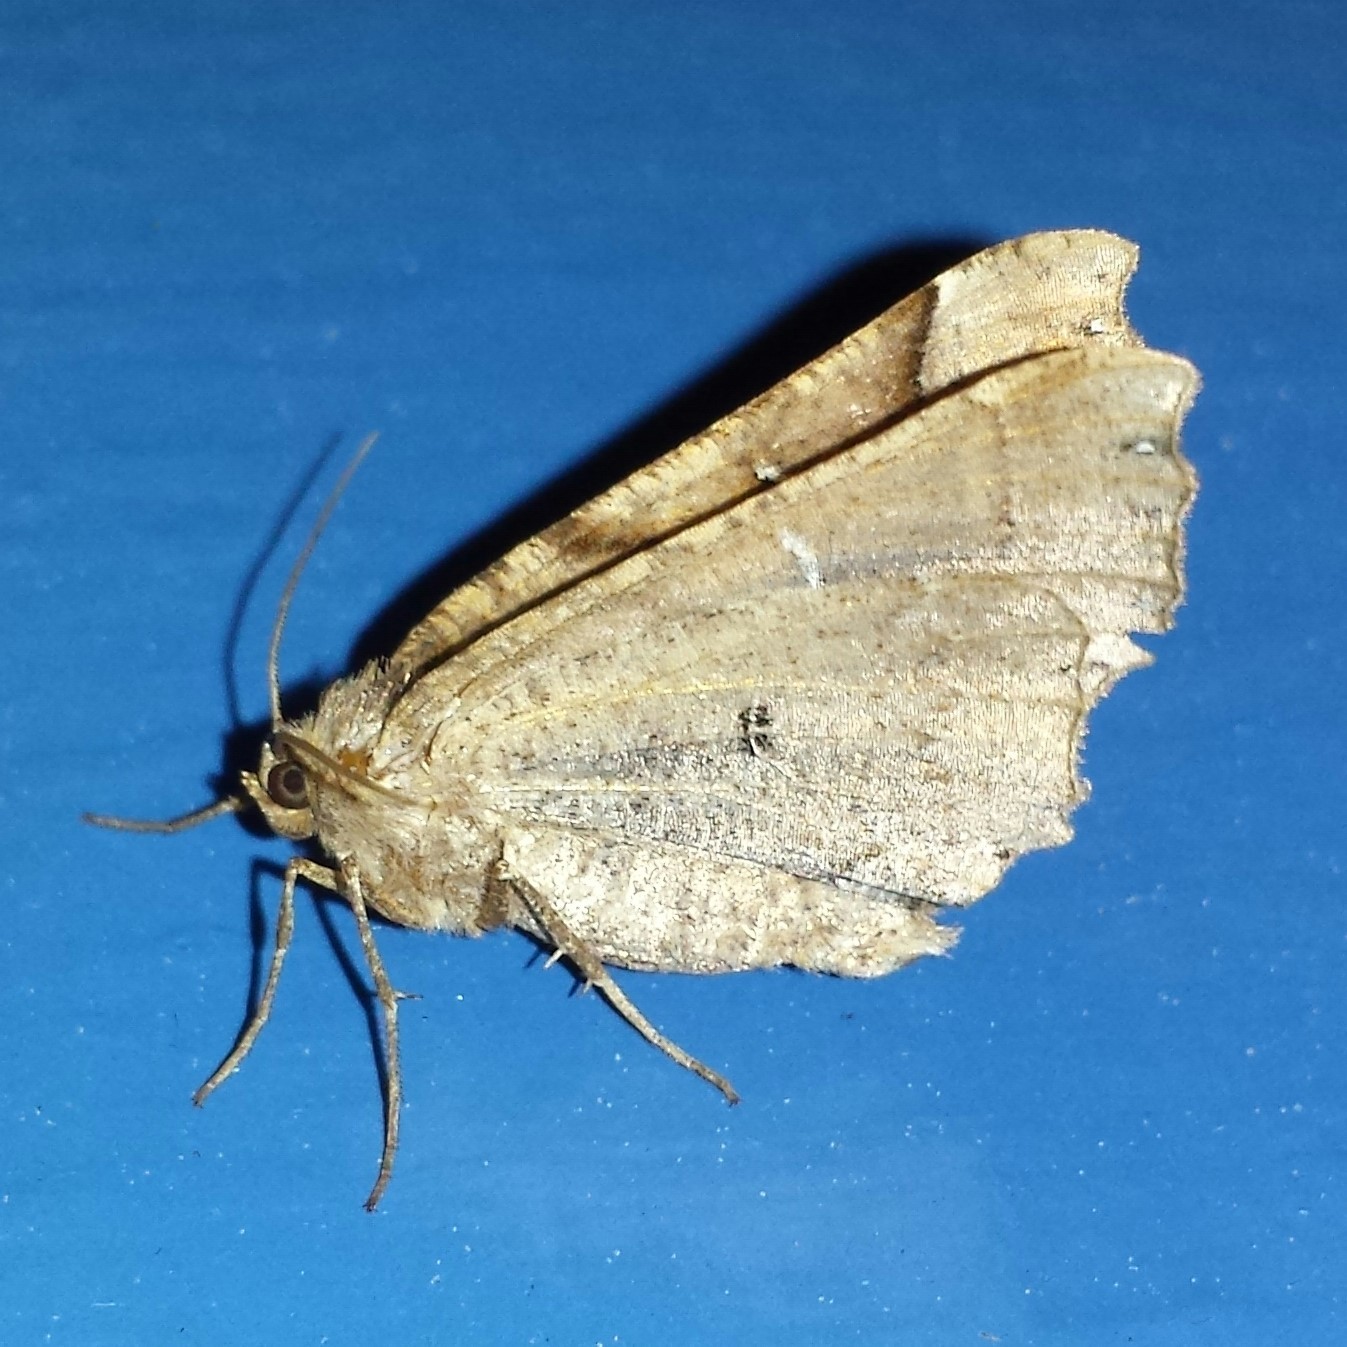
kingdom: Animalia
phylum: Arthropoda
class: Insecta
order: Lepidoptera
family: Geometridae
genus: Pero
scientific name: Pero
